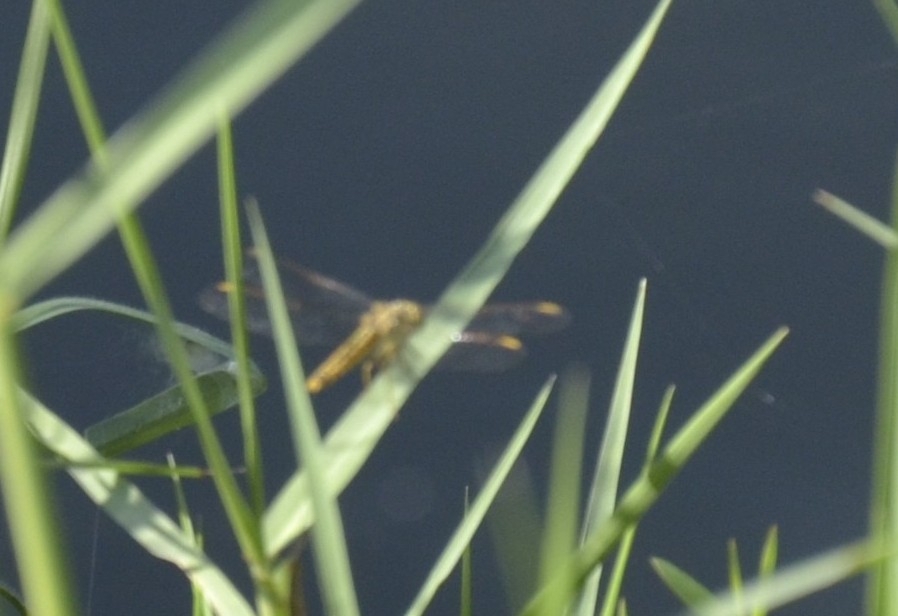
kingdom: Animalia
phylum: Arthropoda
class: Insecta
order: Odonata
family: Libellulidae
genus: Brachythemis
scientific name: Brachythemis contaminata
